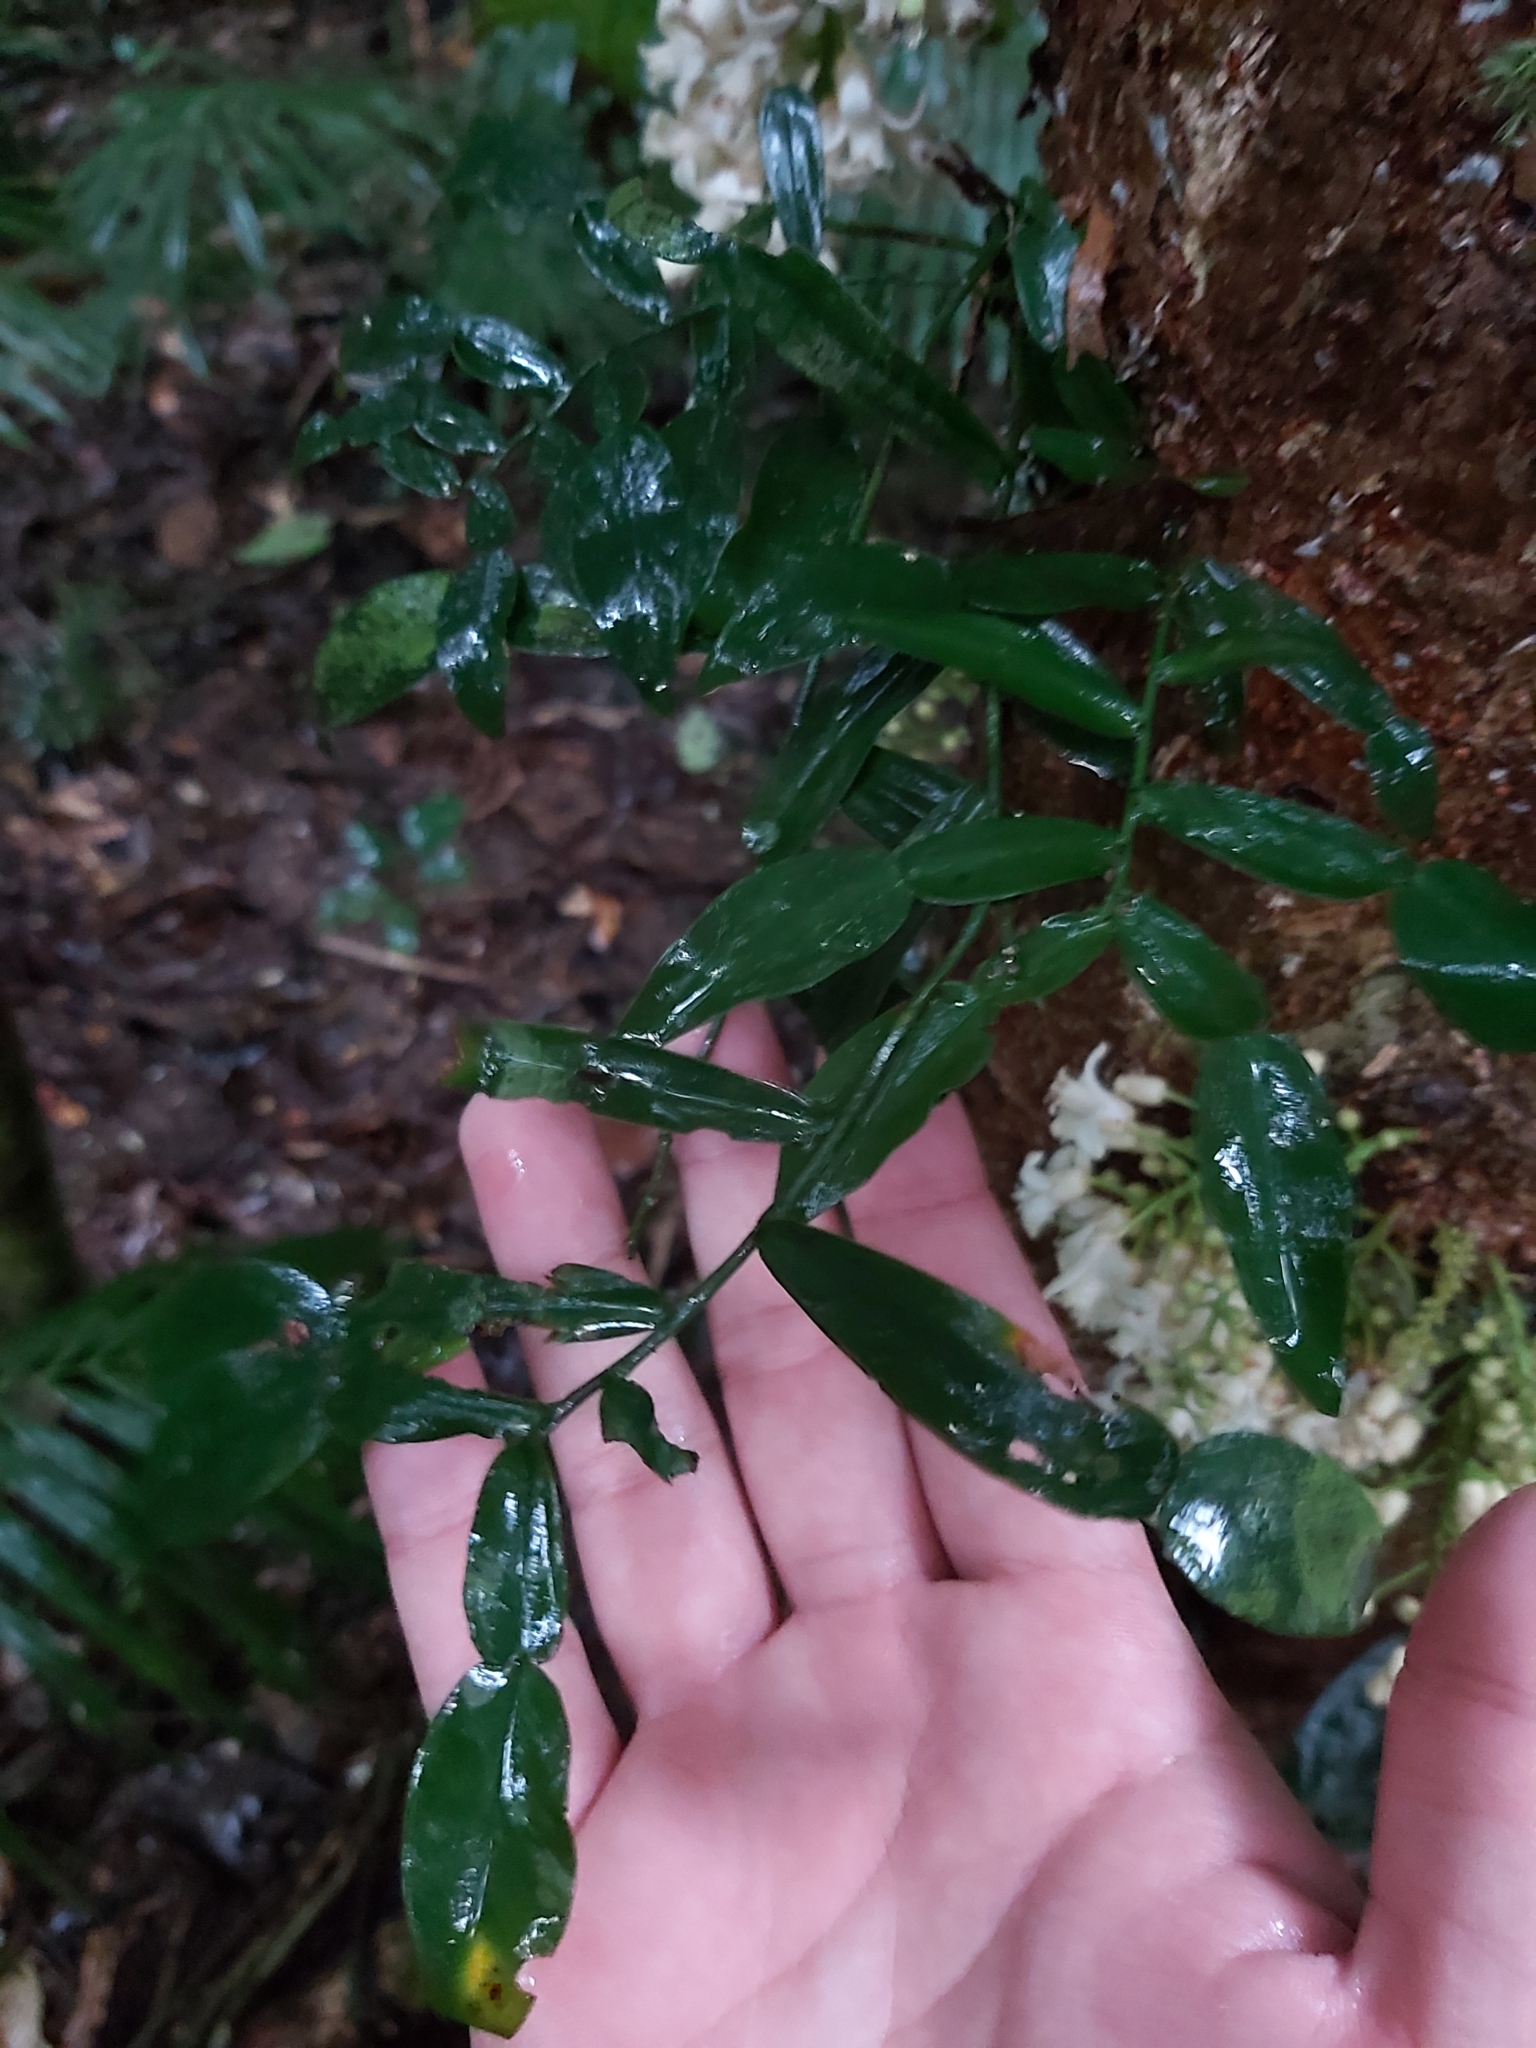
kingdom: Plantae
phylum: Tracheophyta
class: Liliopsida
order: Alismatales
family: Araceae
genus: Pothos
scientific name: Pothos longipes
